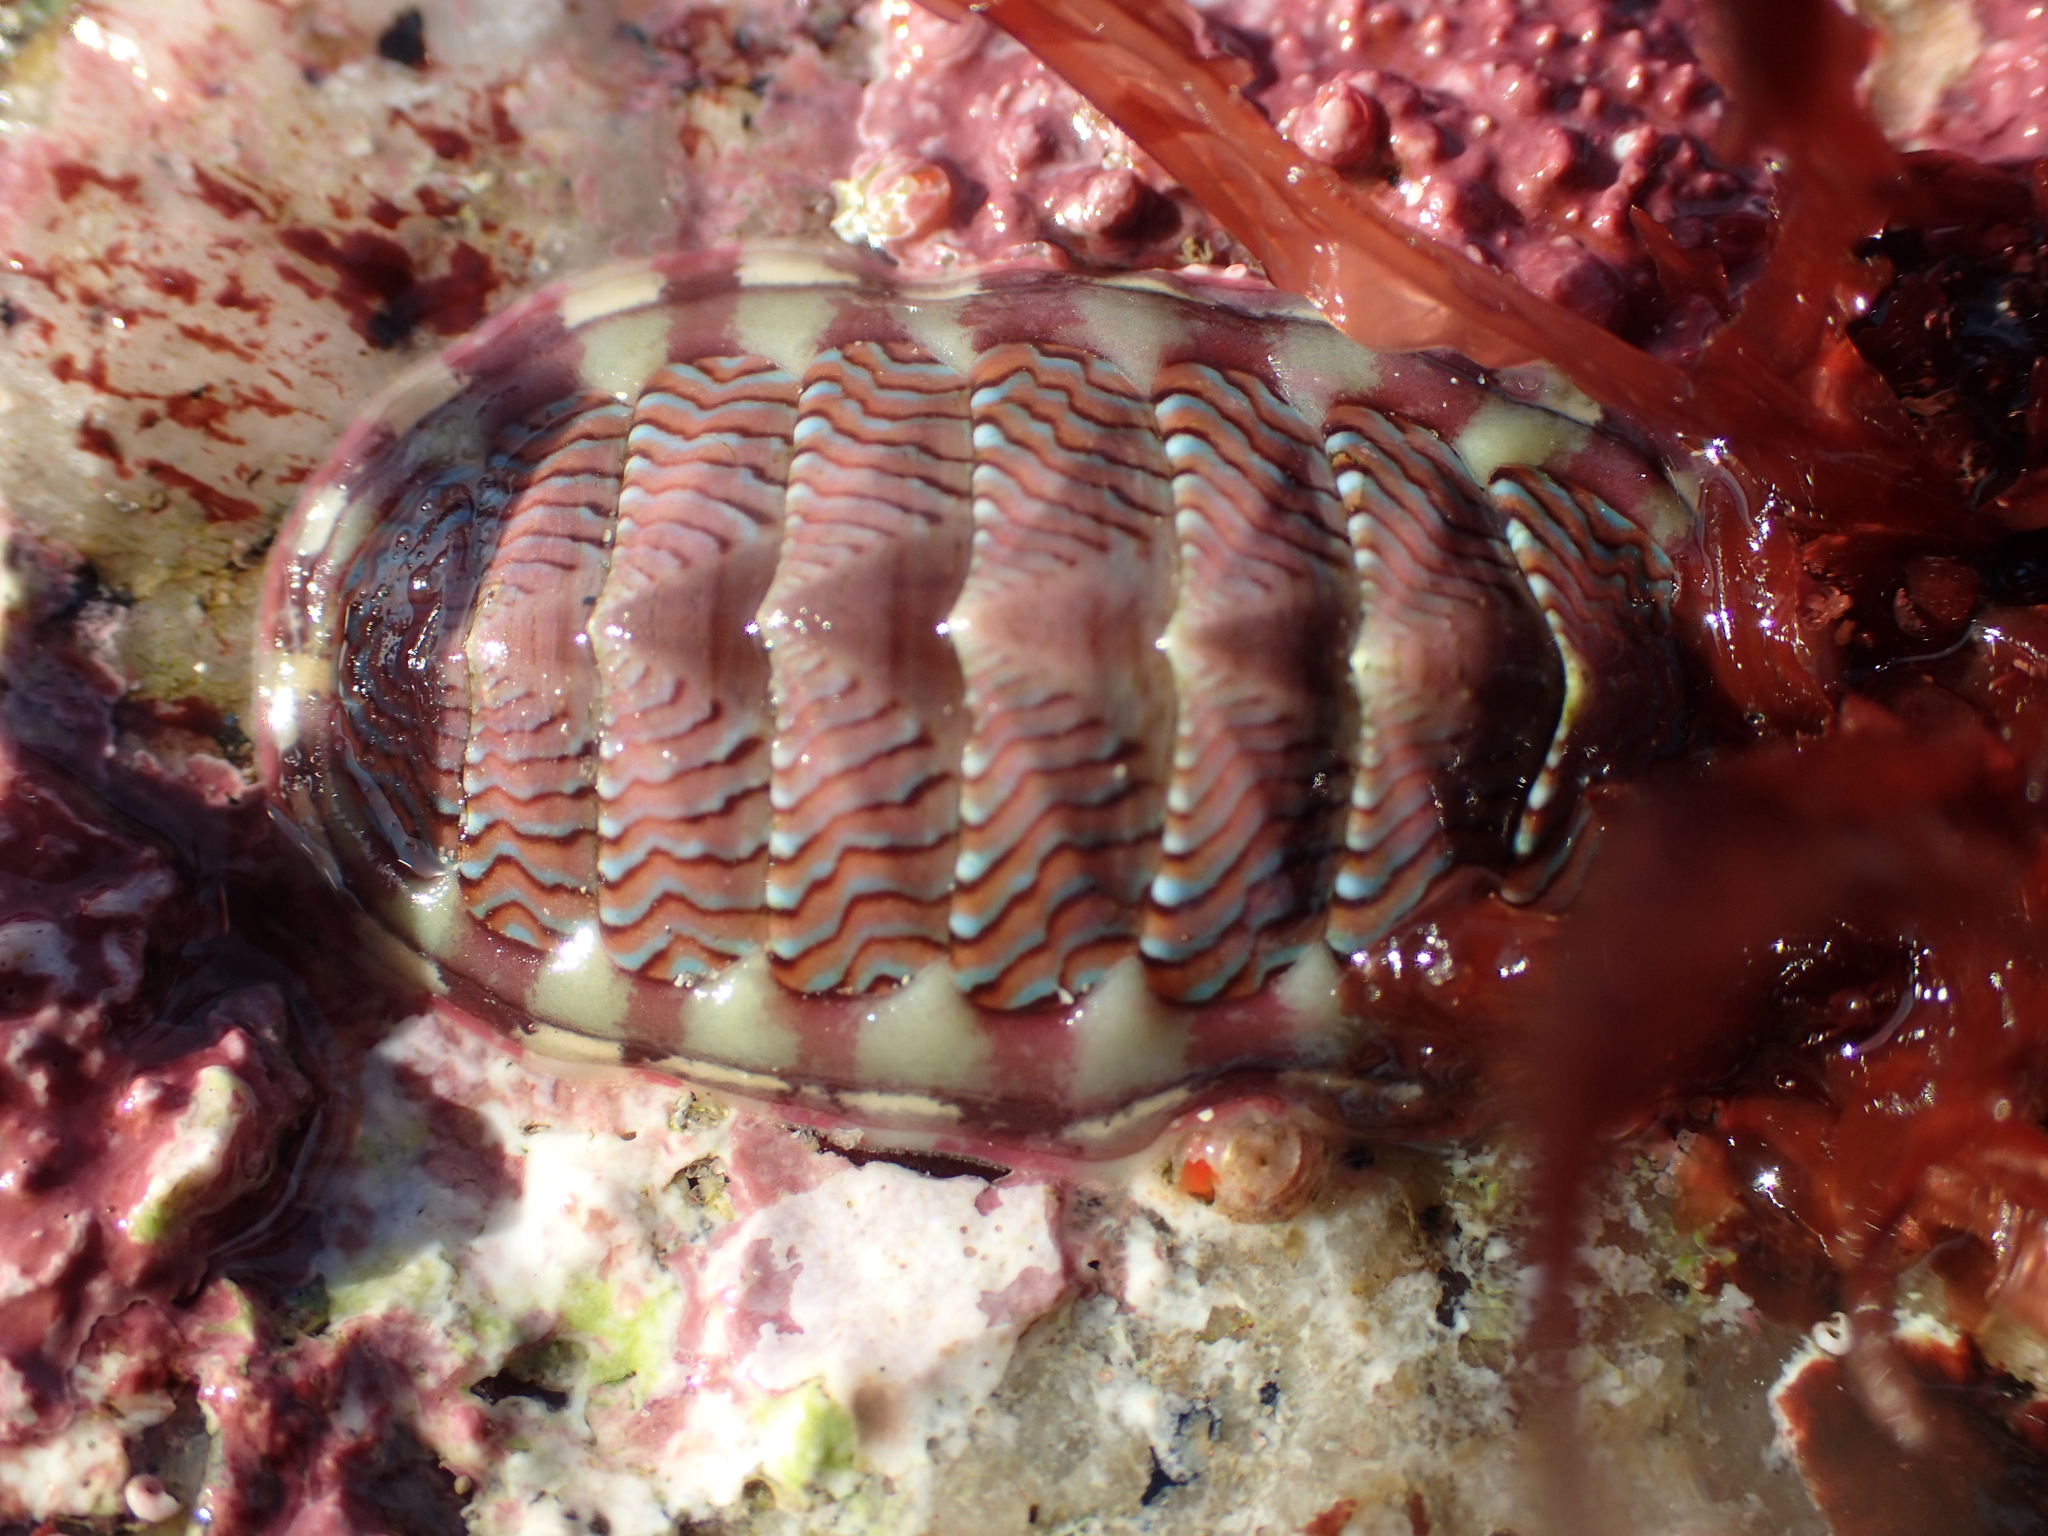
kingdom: Animalia
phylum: Mollusca
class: Polyplacophora
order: Chitonida
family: Tonicellidae
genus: Tonicella
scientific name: Tonicella lokii
